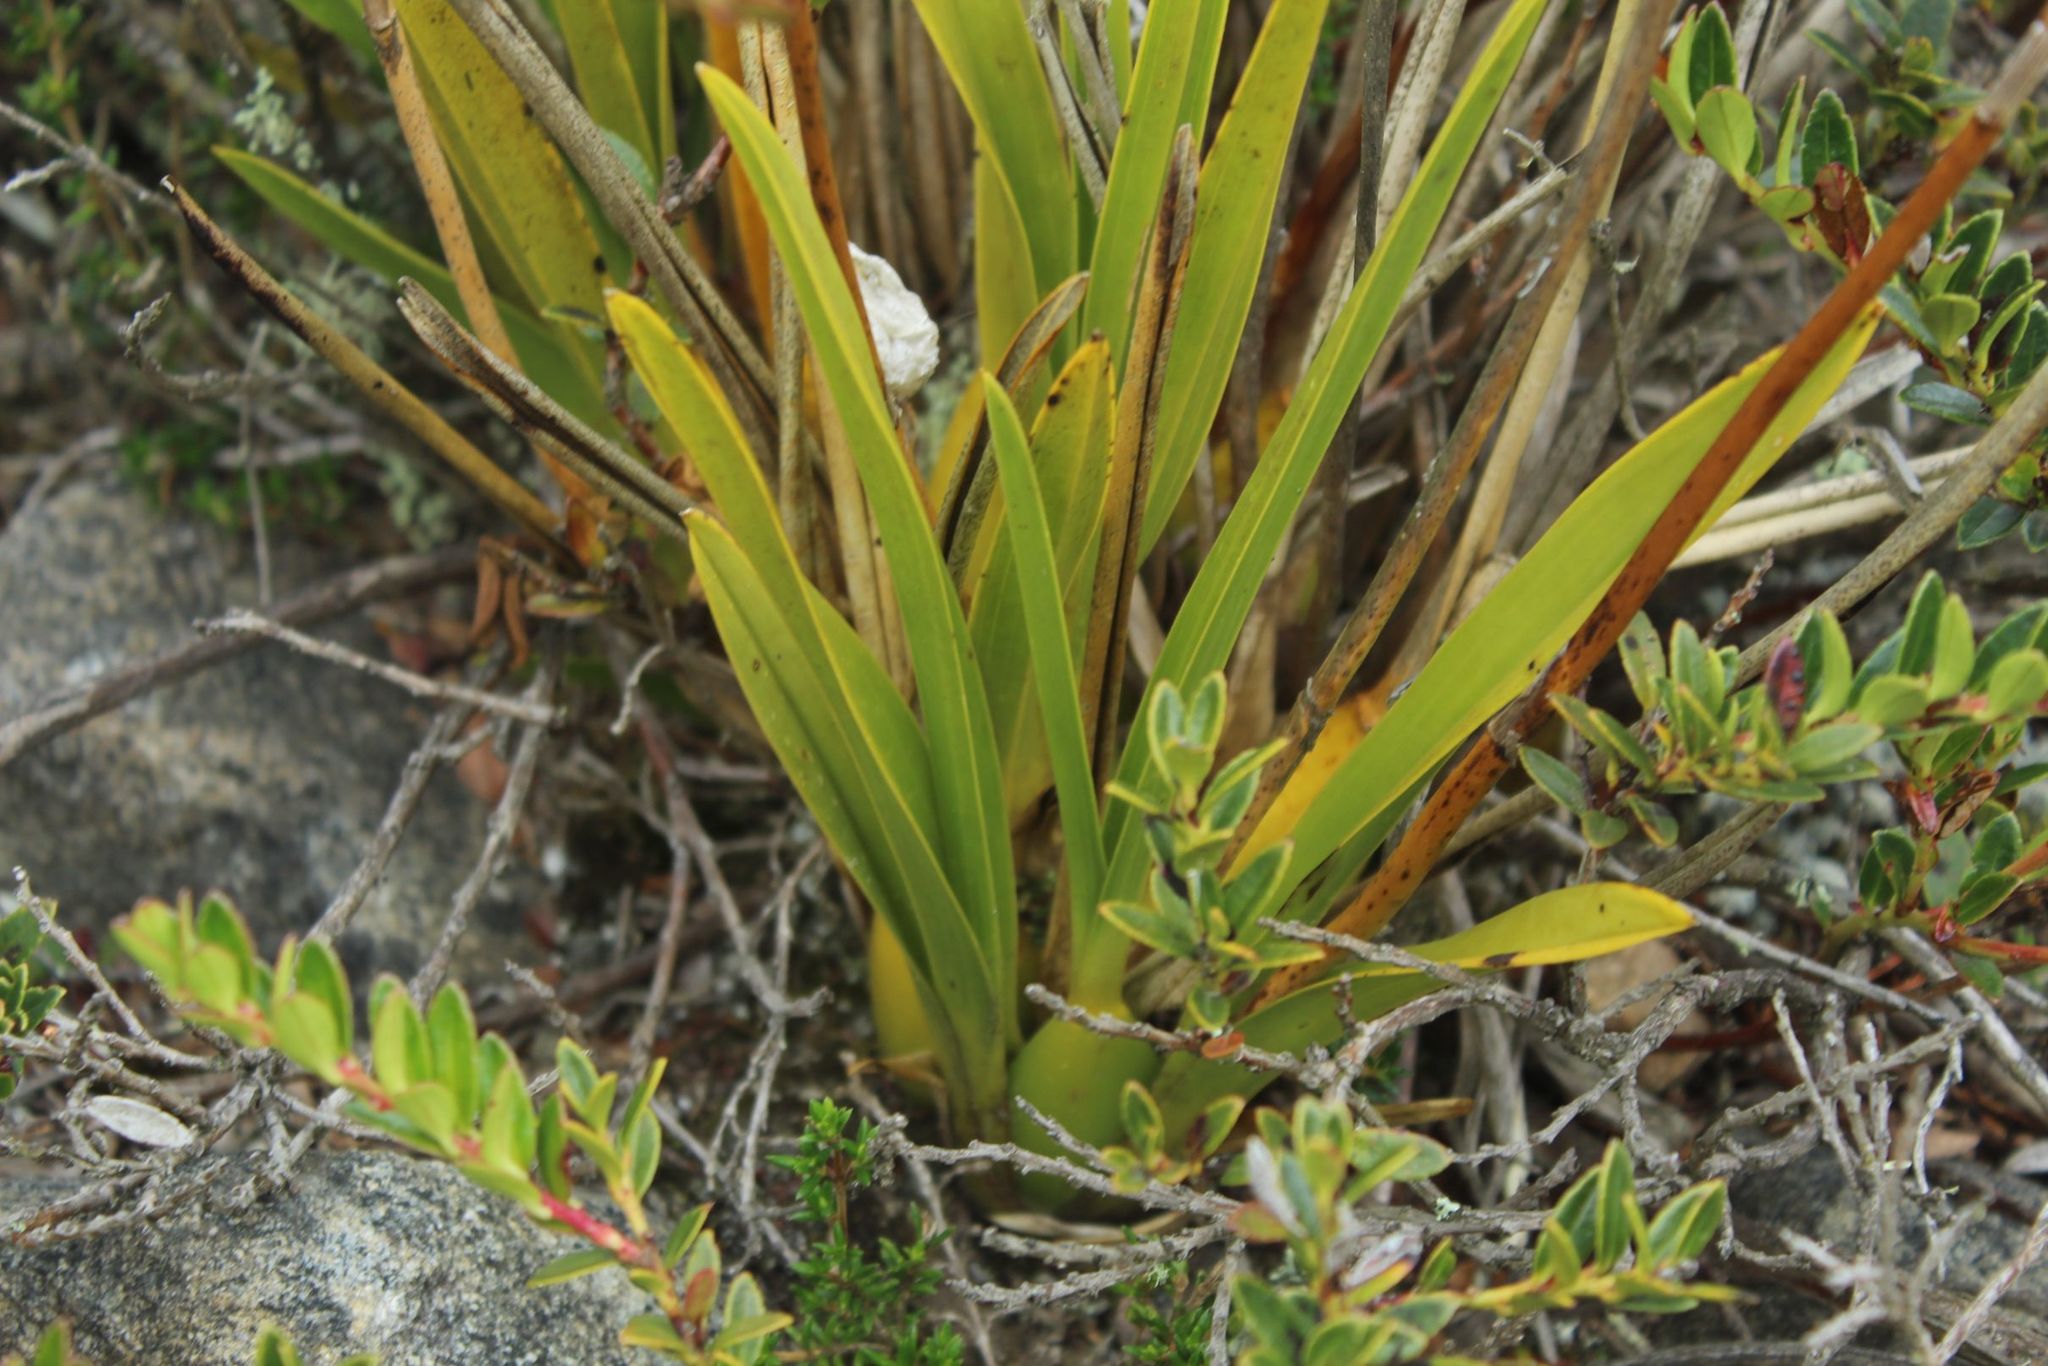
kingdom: Plantae
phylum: Tracheophyta
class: Liliopsida
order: Asparagales
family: Orchidaceae
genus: Cyrtochilum
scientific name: Cyrtochilum revolutum
